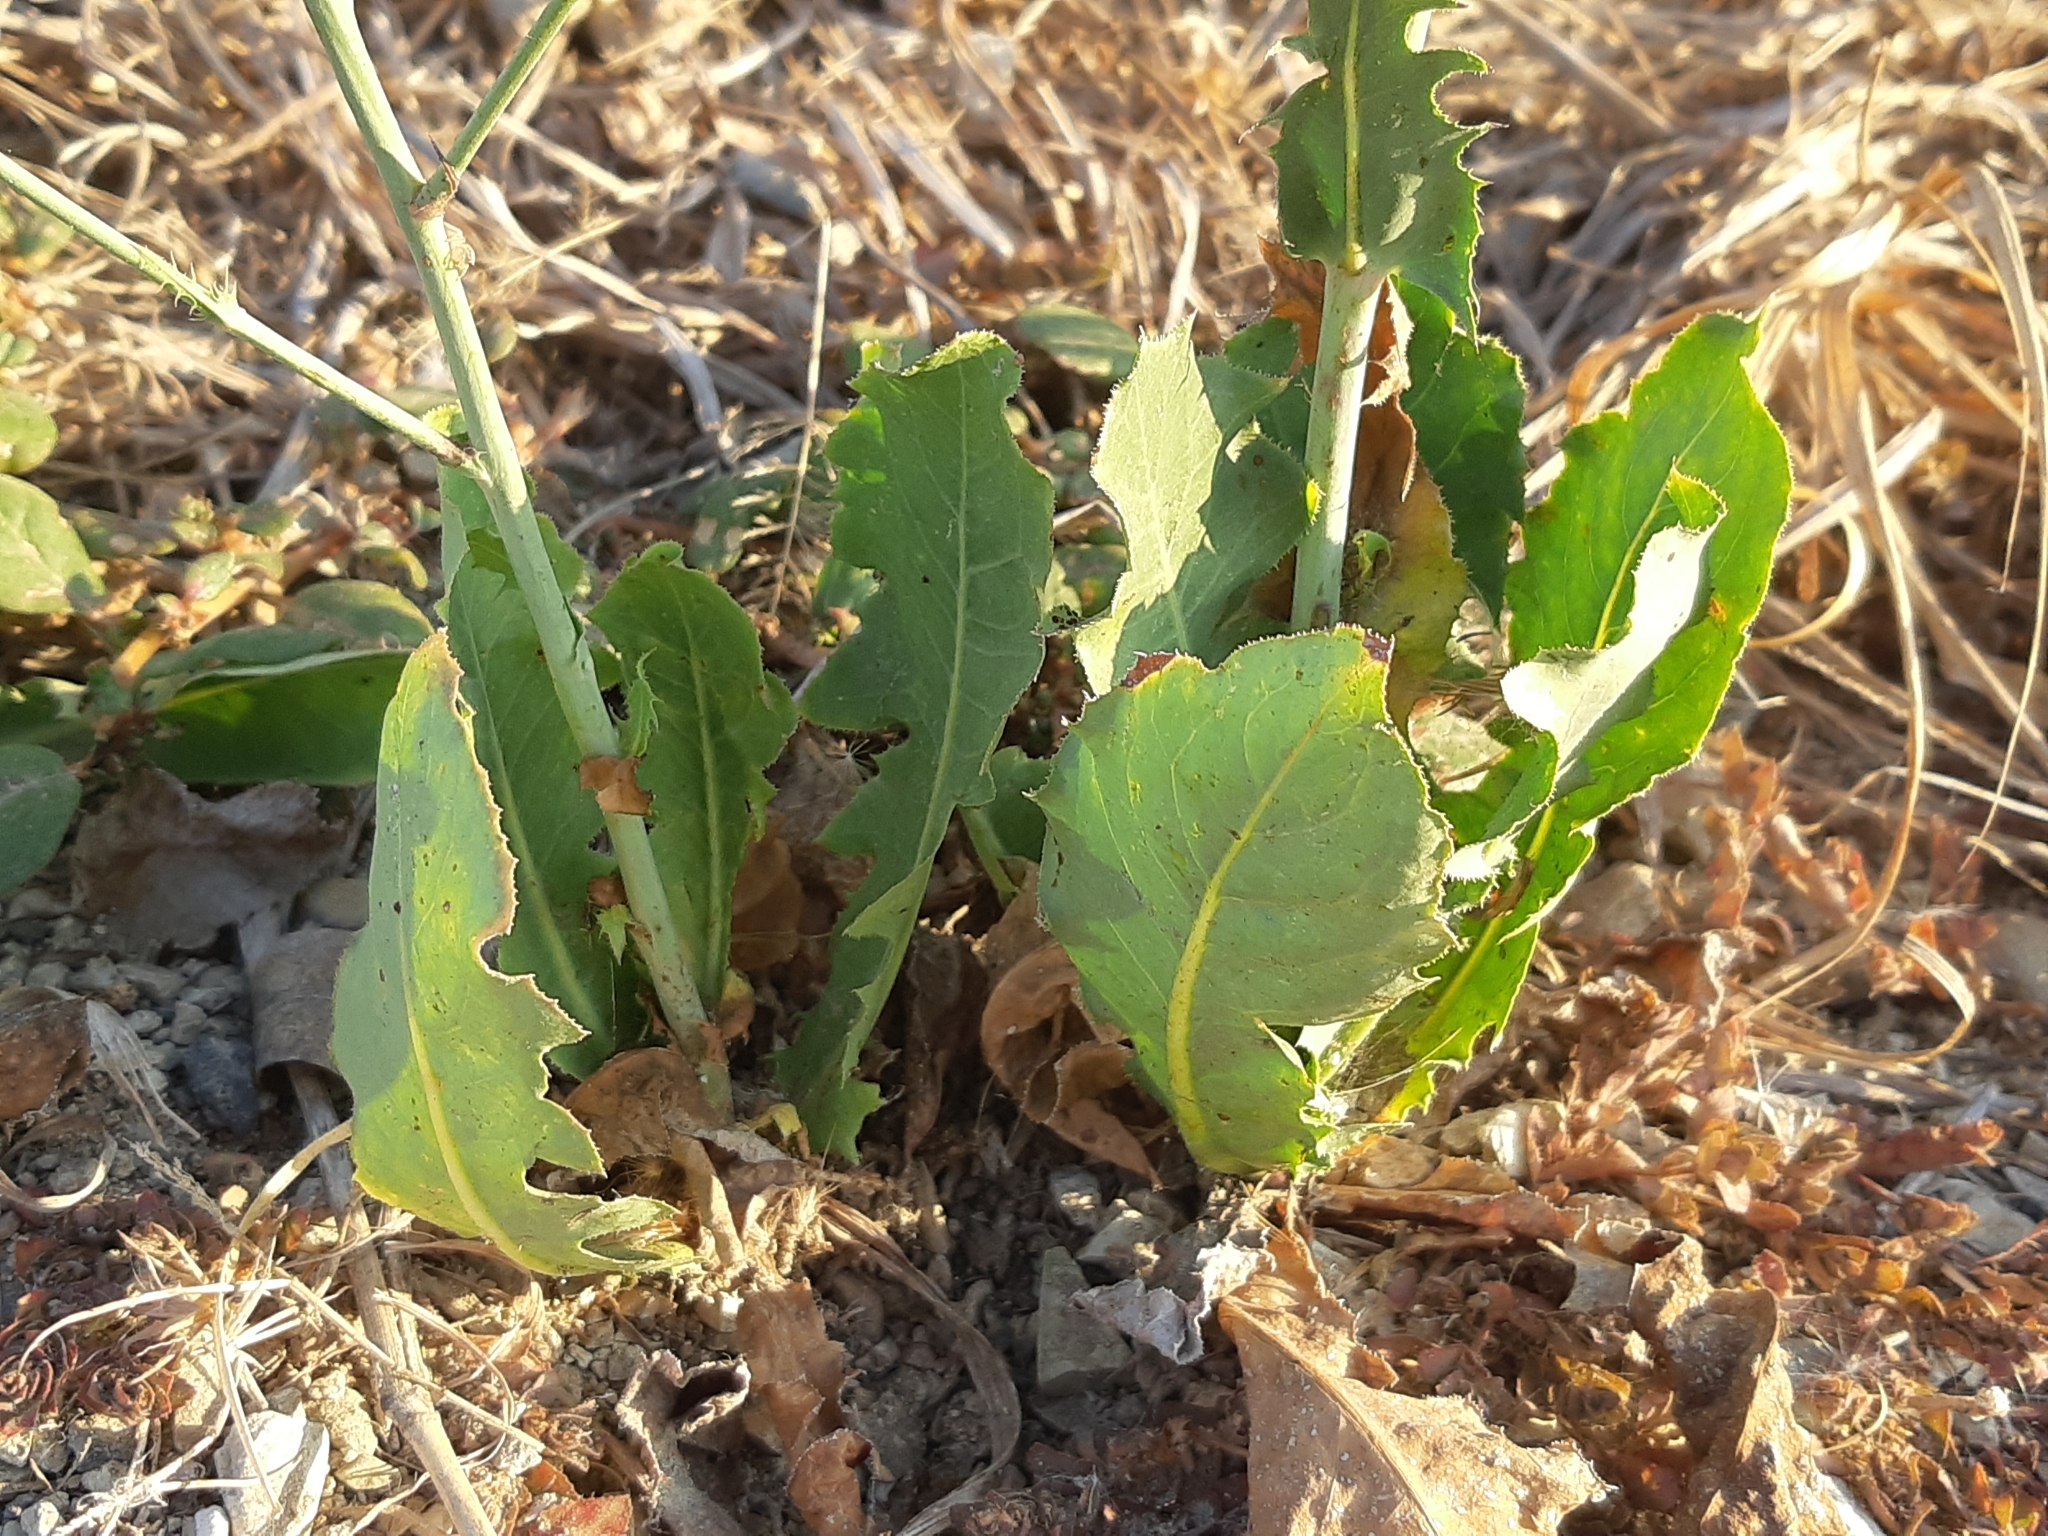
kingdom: Plantae
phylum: Tracheophyta
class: Magnoliopsida
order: Asterales
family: Asteraceae
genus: Lactuca
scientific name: Lactuca sativa
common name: Garden lettuce
